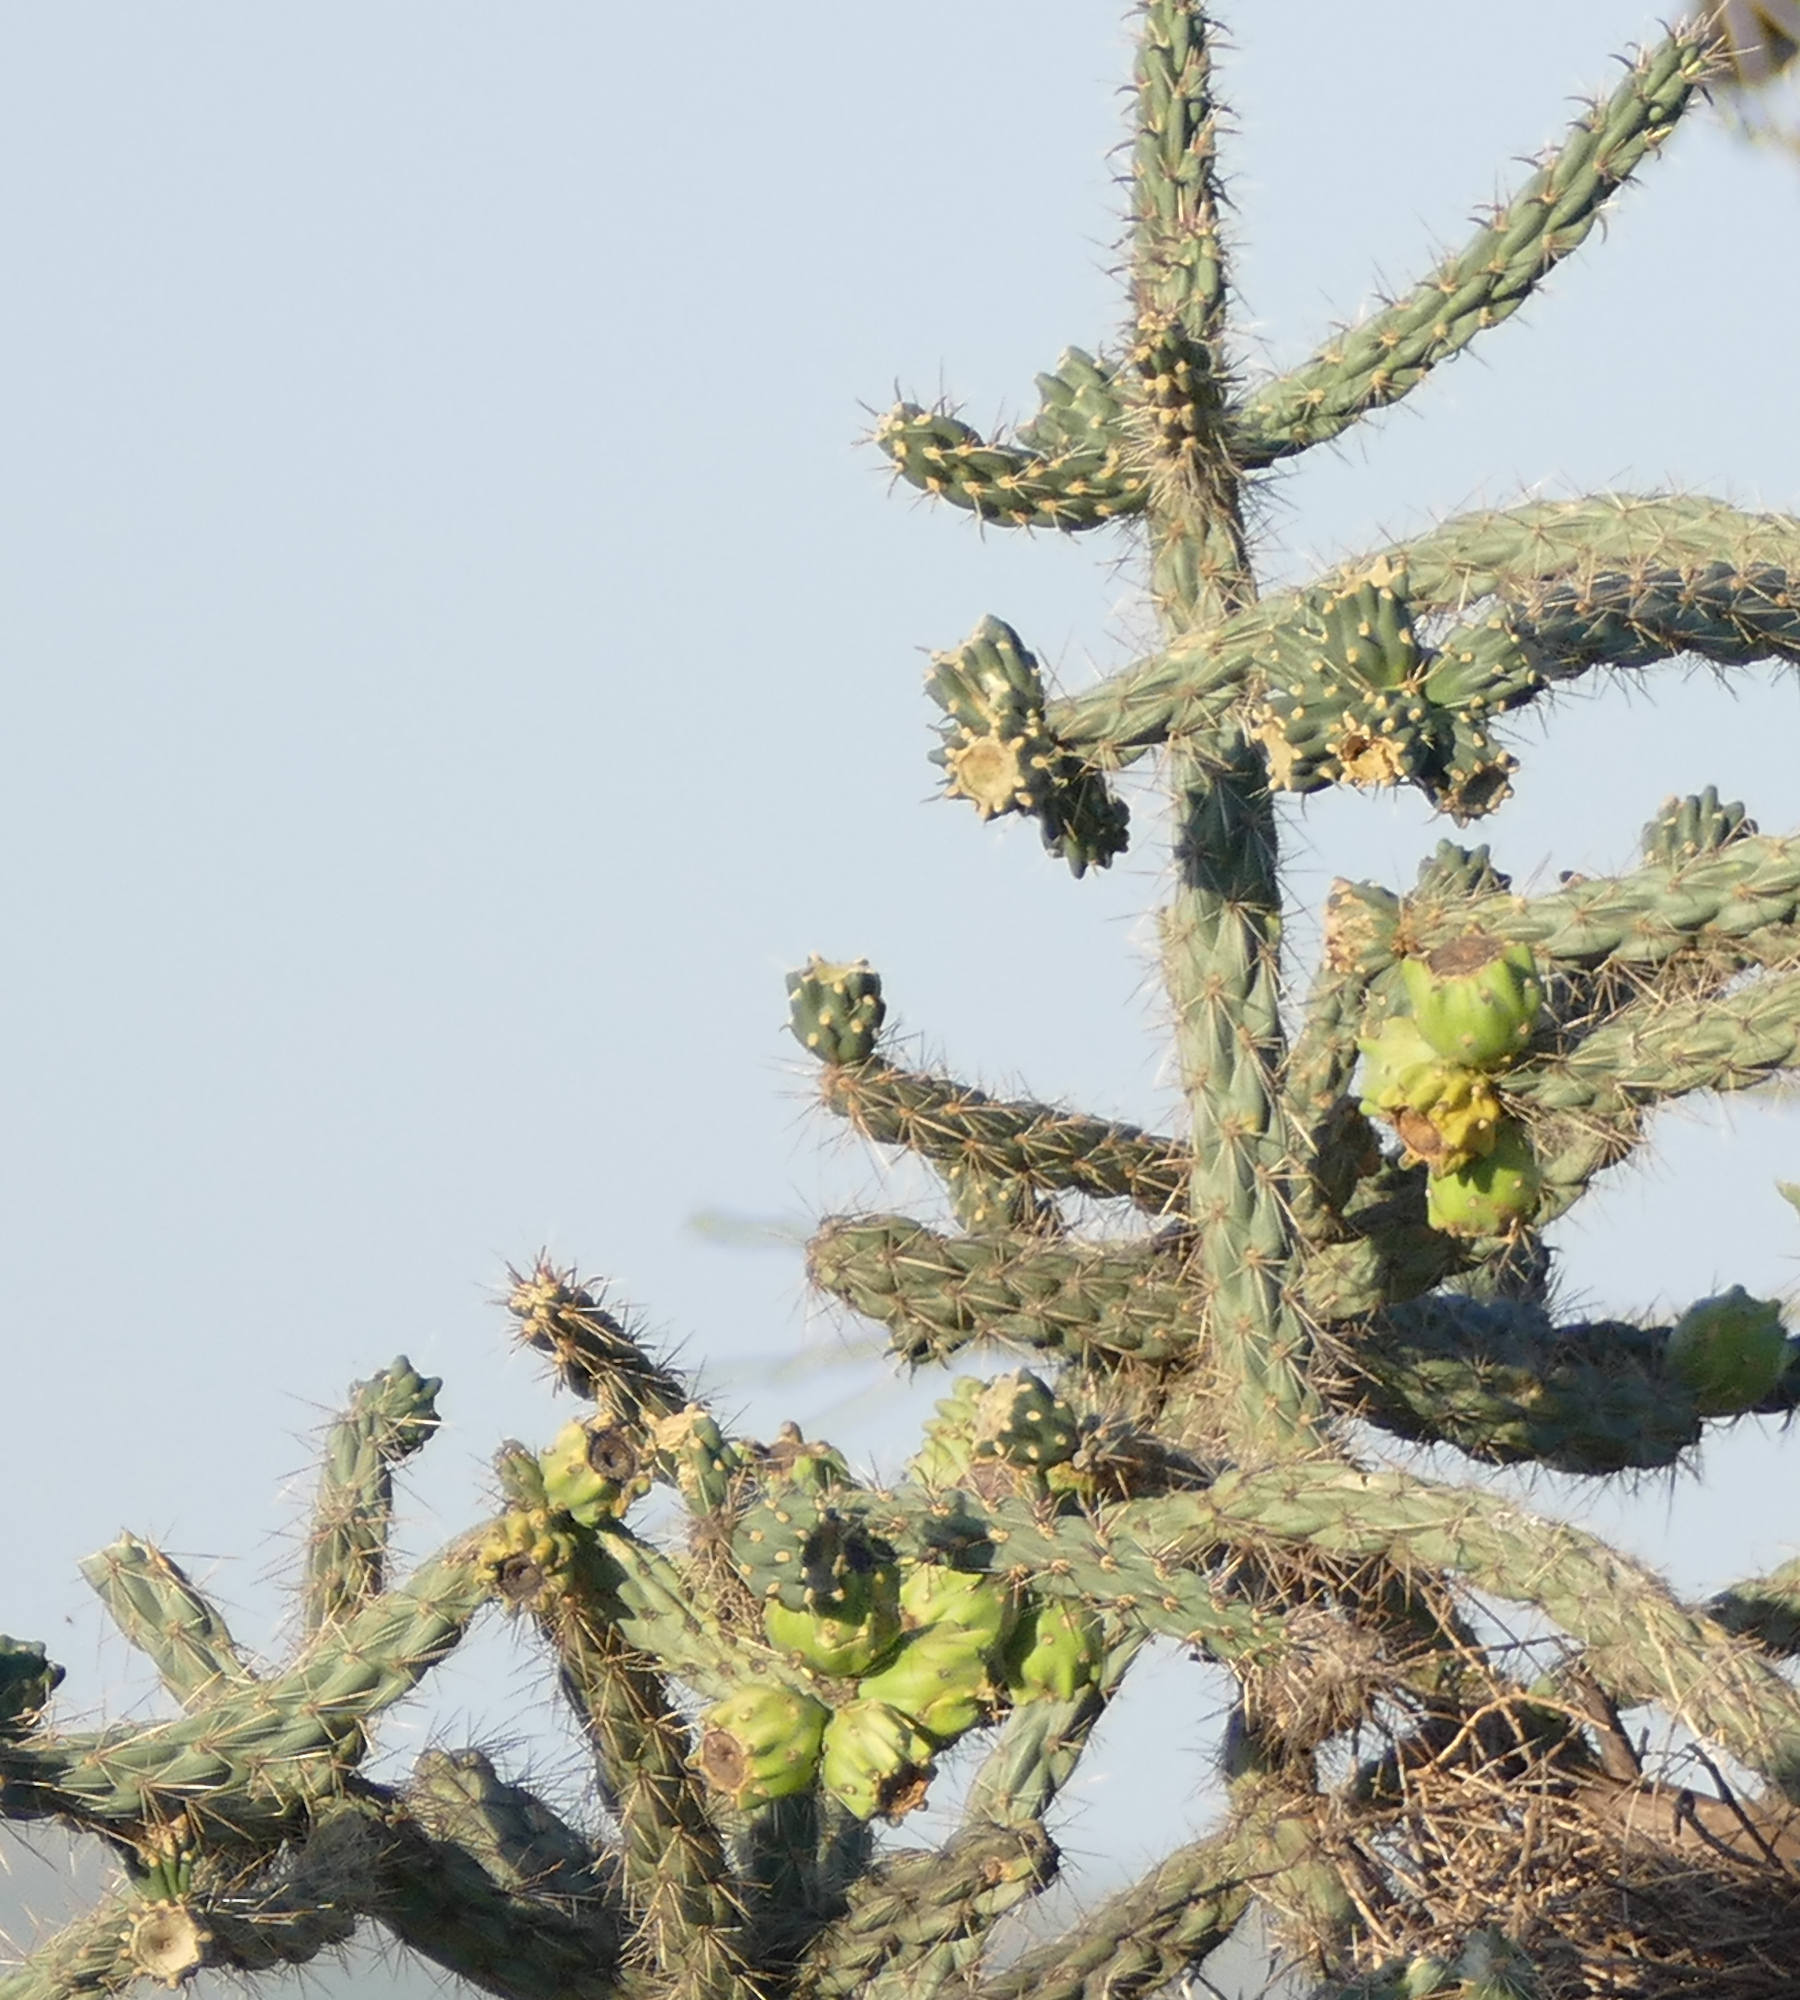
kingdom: Plantae
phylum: Tracheophyta
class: Magnoliopsida
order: Caryophyllales
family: Cactaceae
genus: Cylindropuntia
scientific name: Cylindropuntia imbricata
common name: Candelabrum cactus
